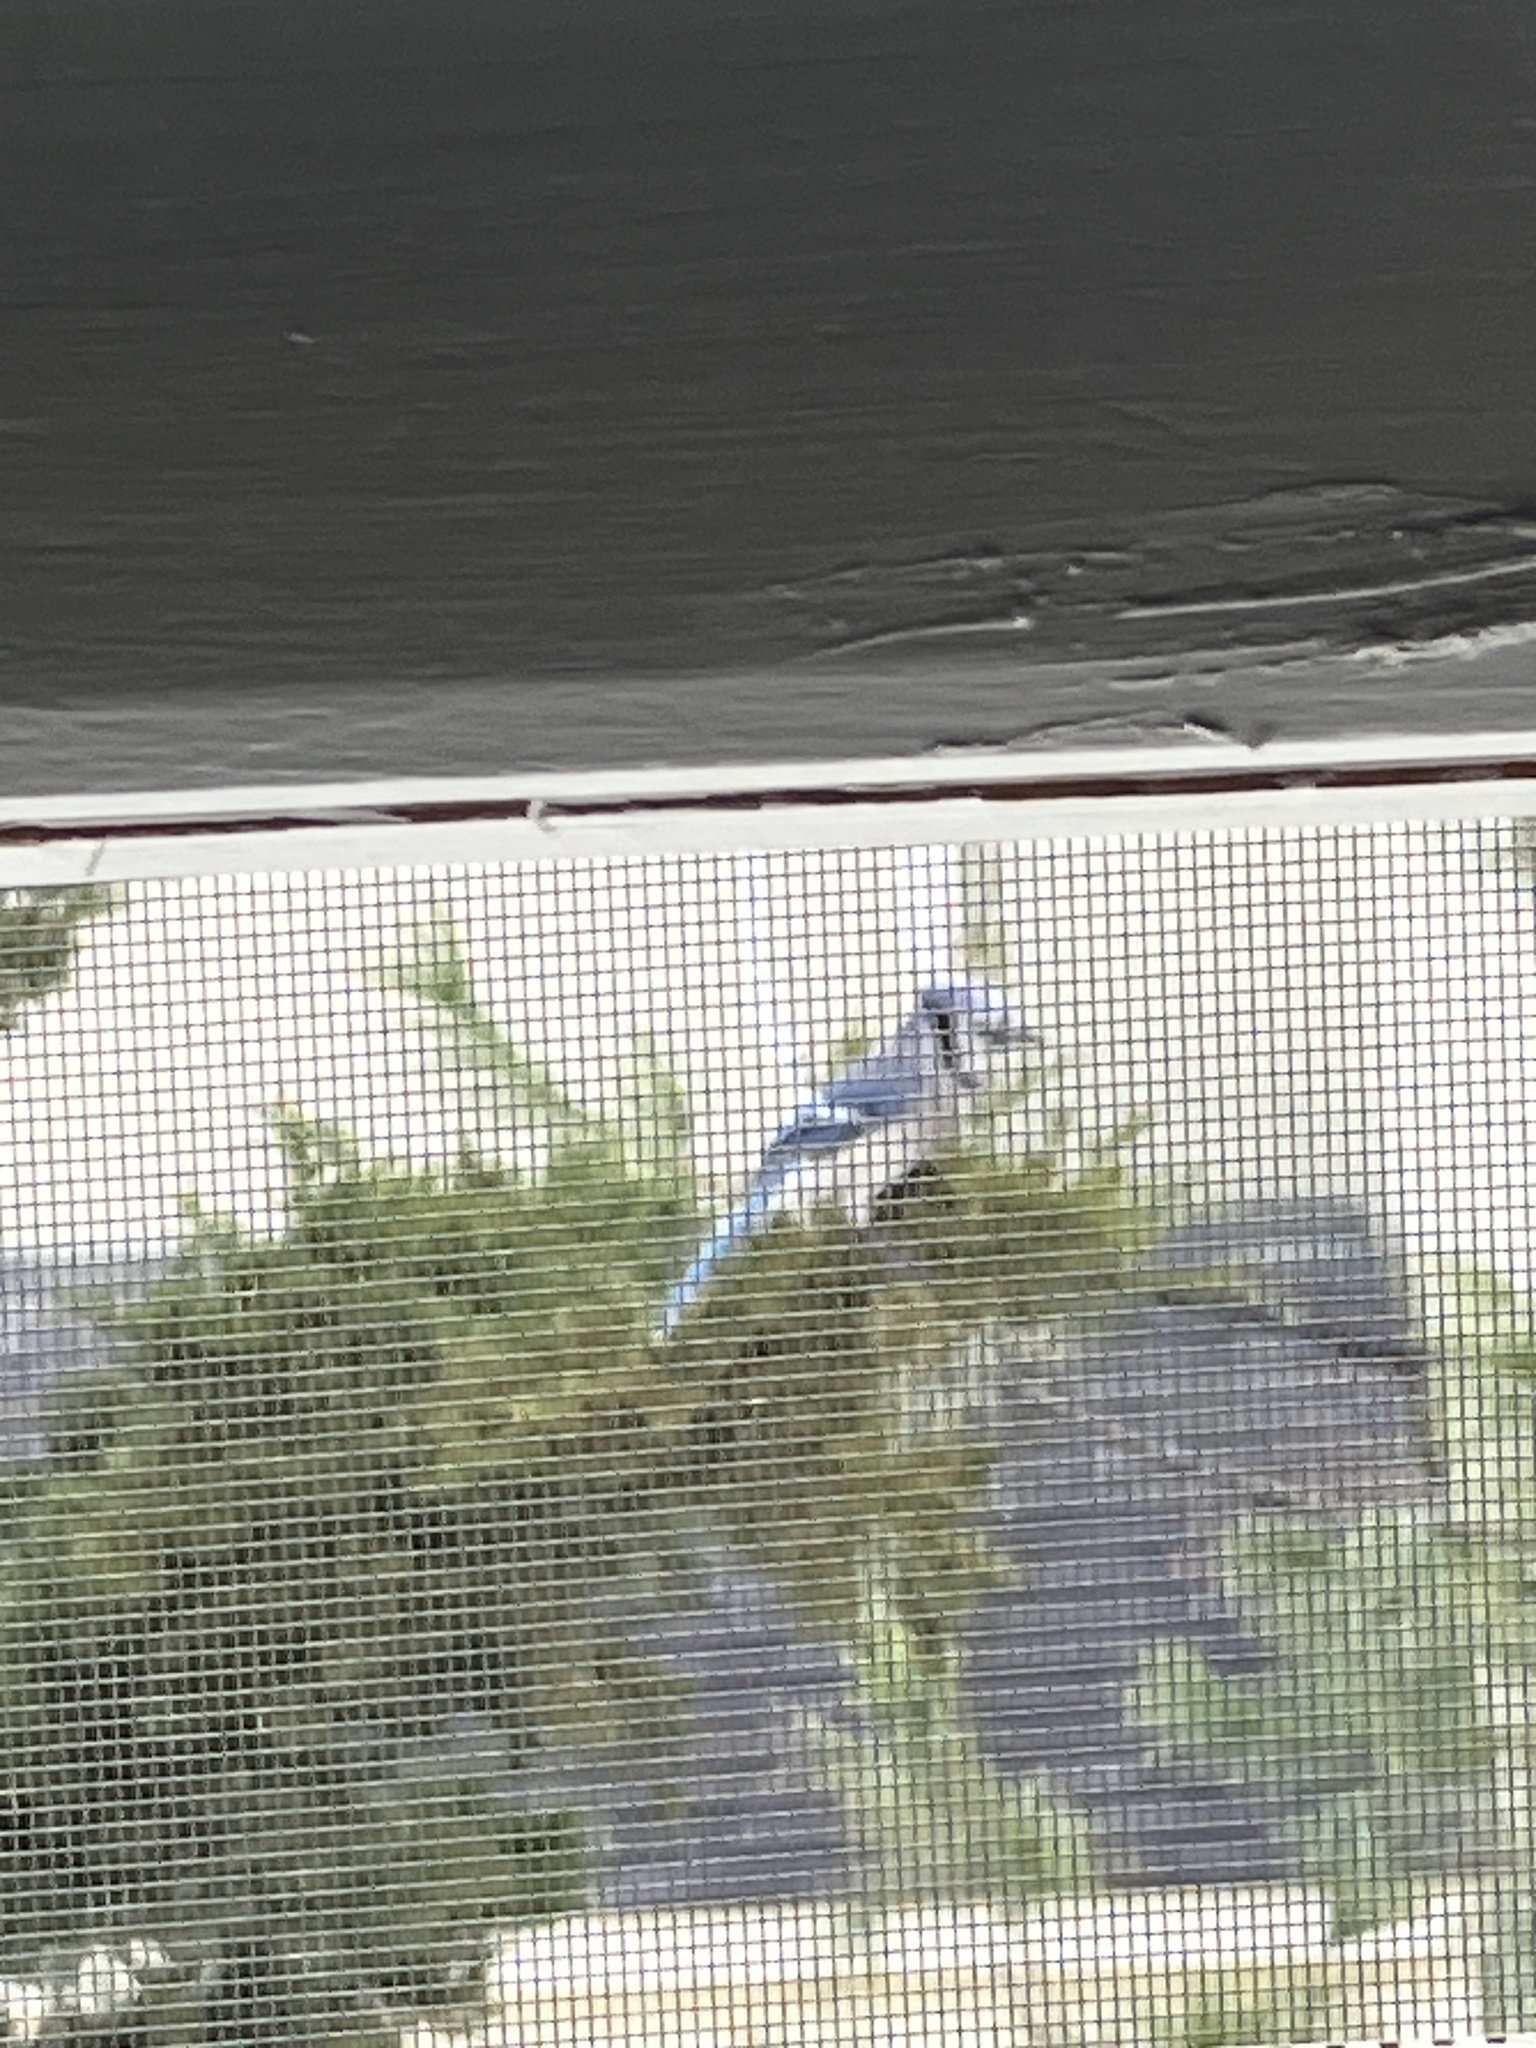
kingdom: Animalia
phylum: Chordata
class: Aves
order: Passeriformes
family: Corvidae
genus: Cyanocitta
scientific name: Cyanocitta cristata
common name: Blue jay
